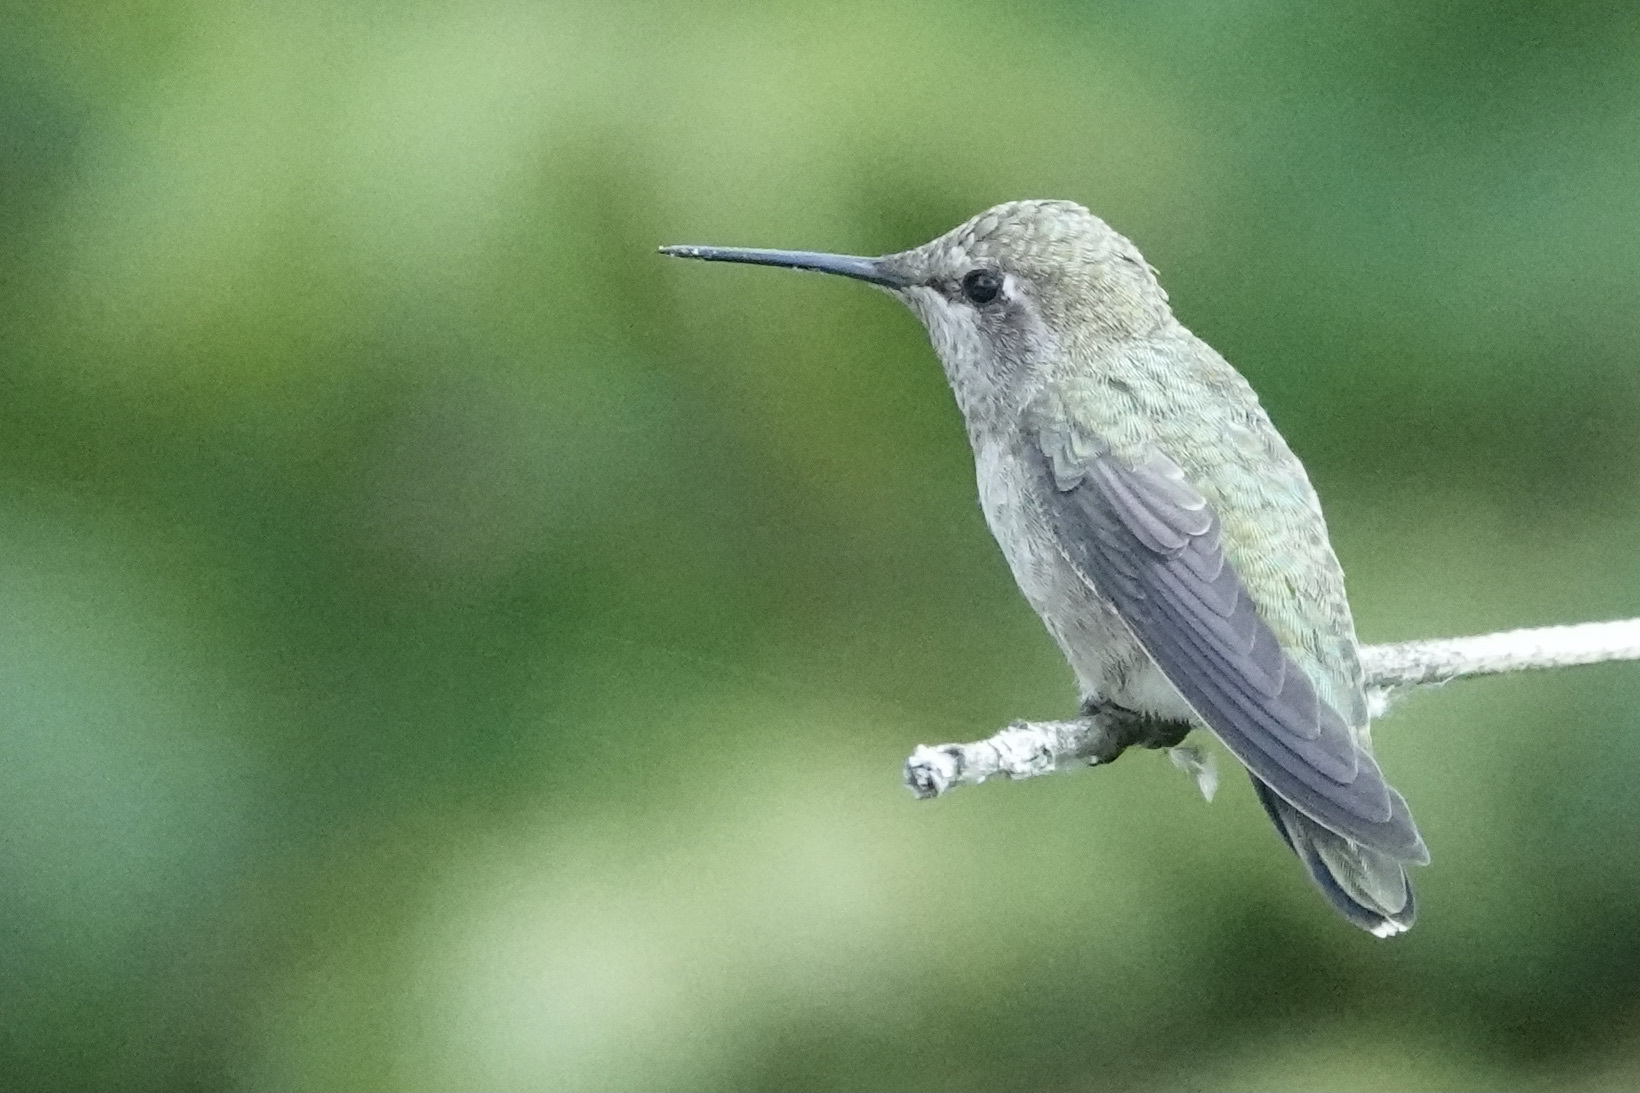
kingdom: Animalia
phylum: Chordata
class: Aves
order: Apodiformes
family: Trochilidae
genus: Calypte
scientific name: Calypte anna
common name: Anna's hummingbird
